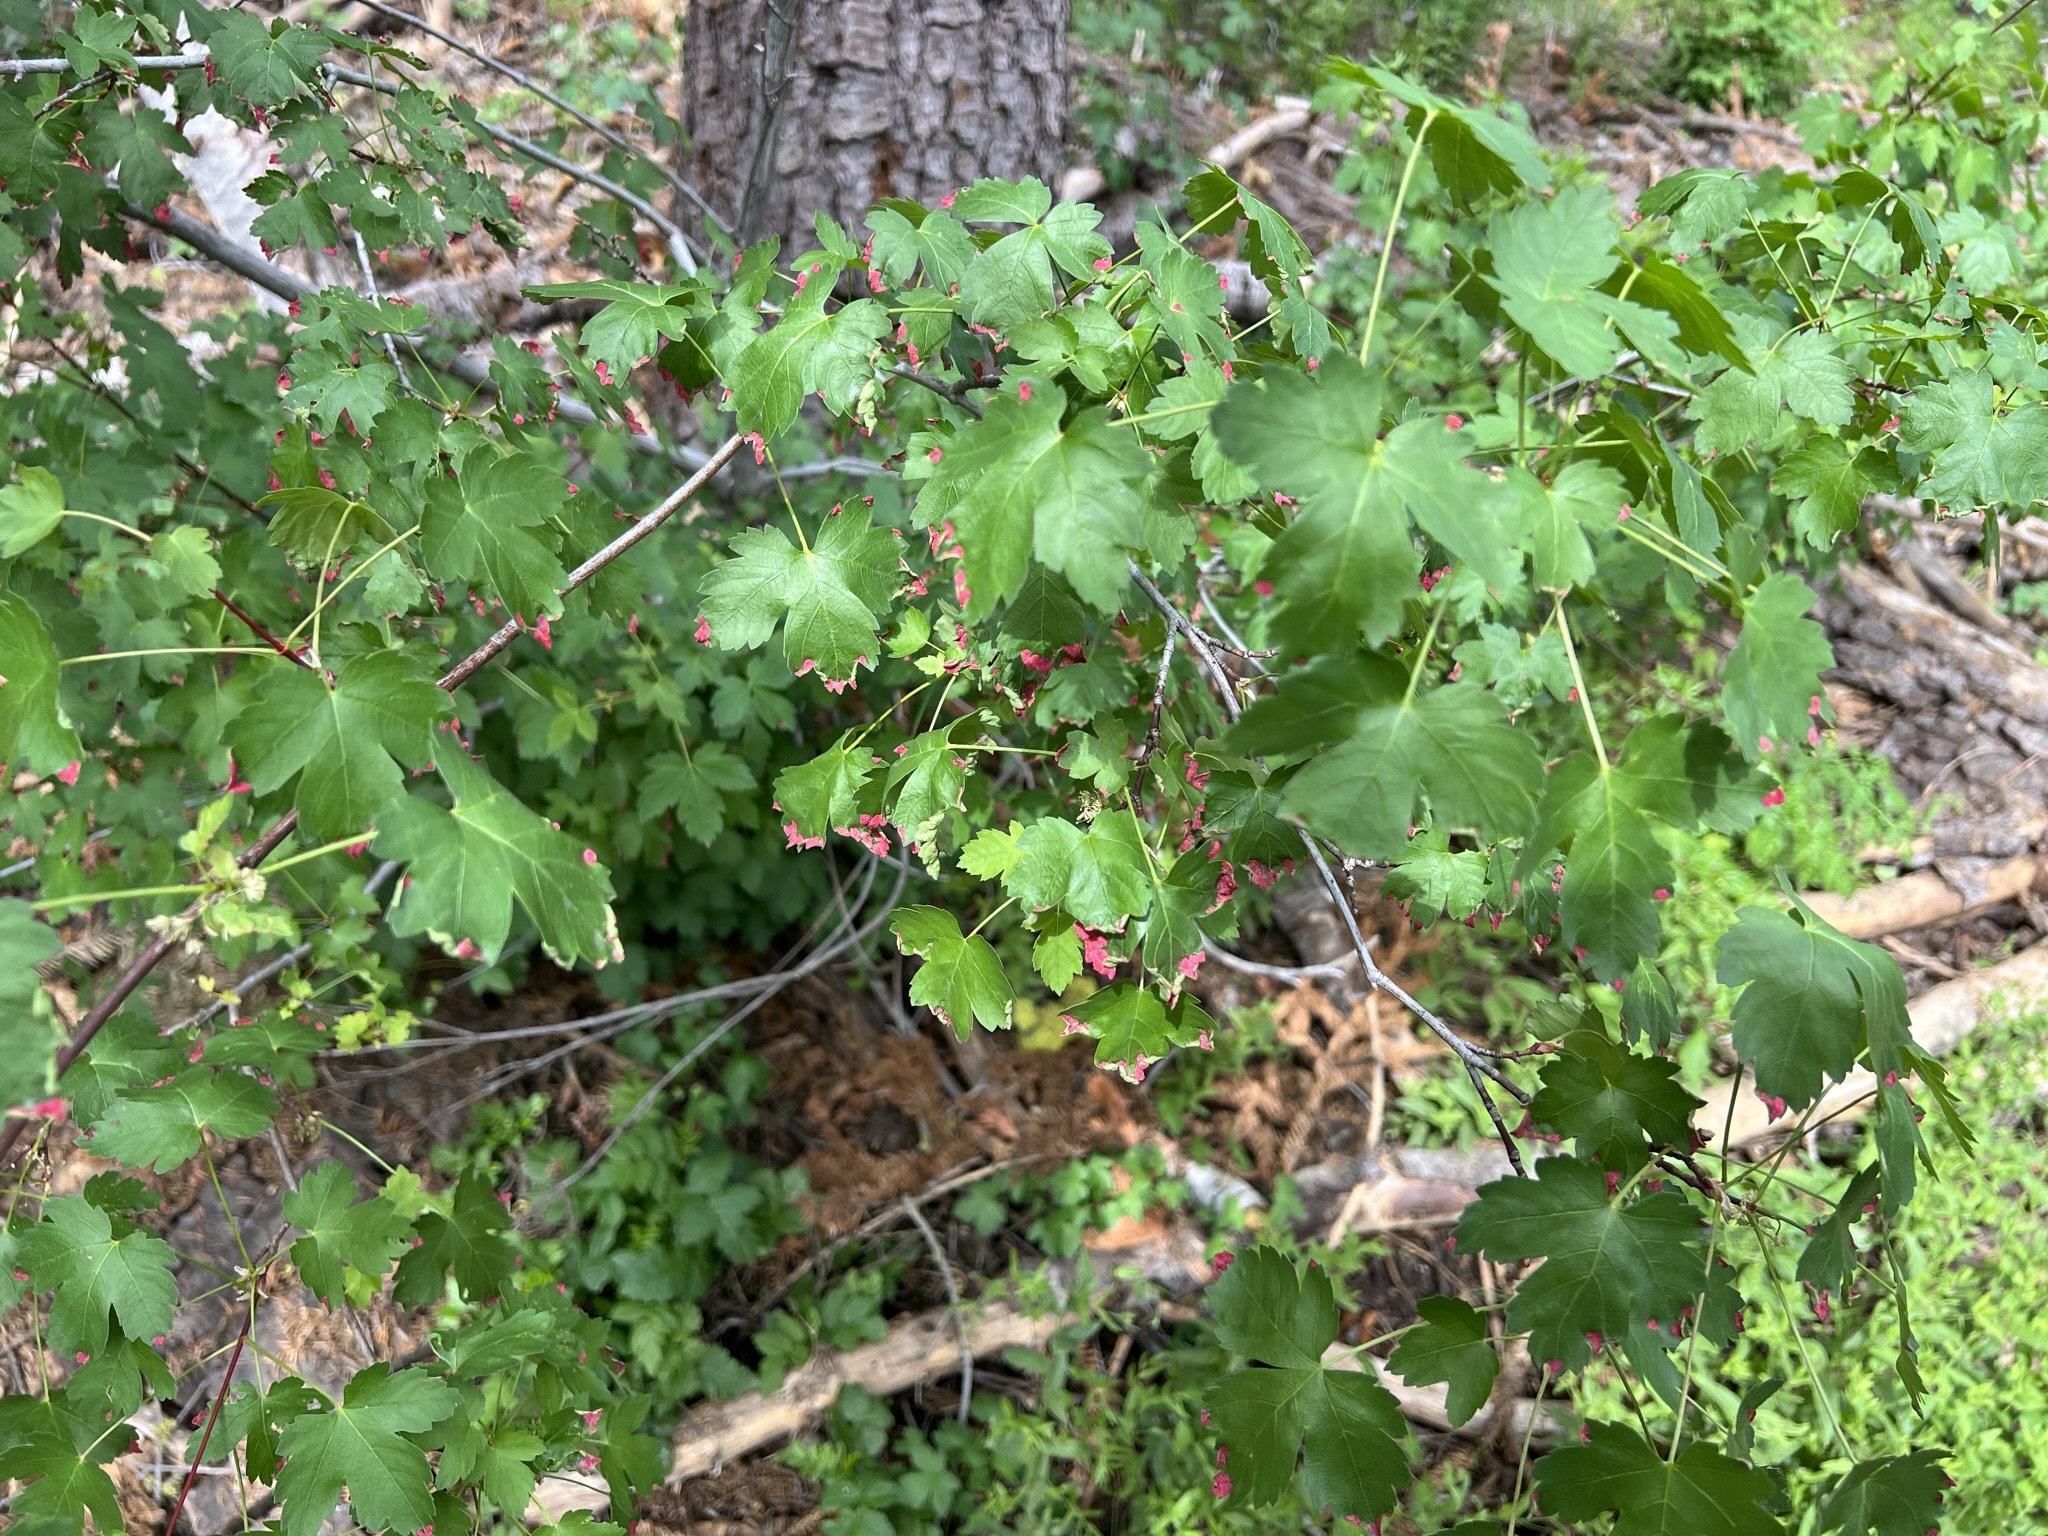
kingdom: Plantae
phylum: Tracheophyta
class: Magnoliopsida
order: Sapindales
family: Sapindaceae
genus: Acer
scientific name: Acer glabrum
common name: Rocky mountain maple
